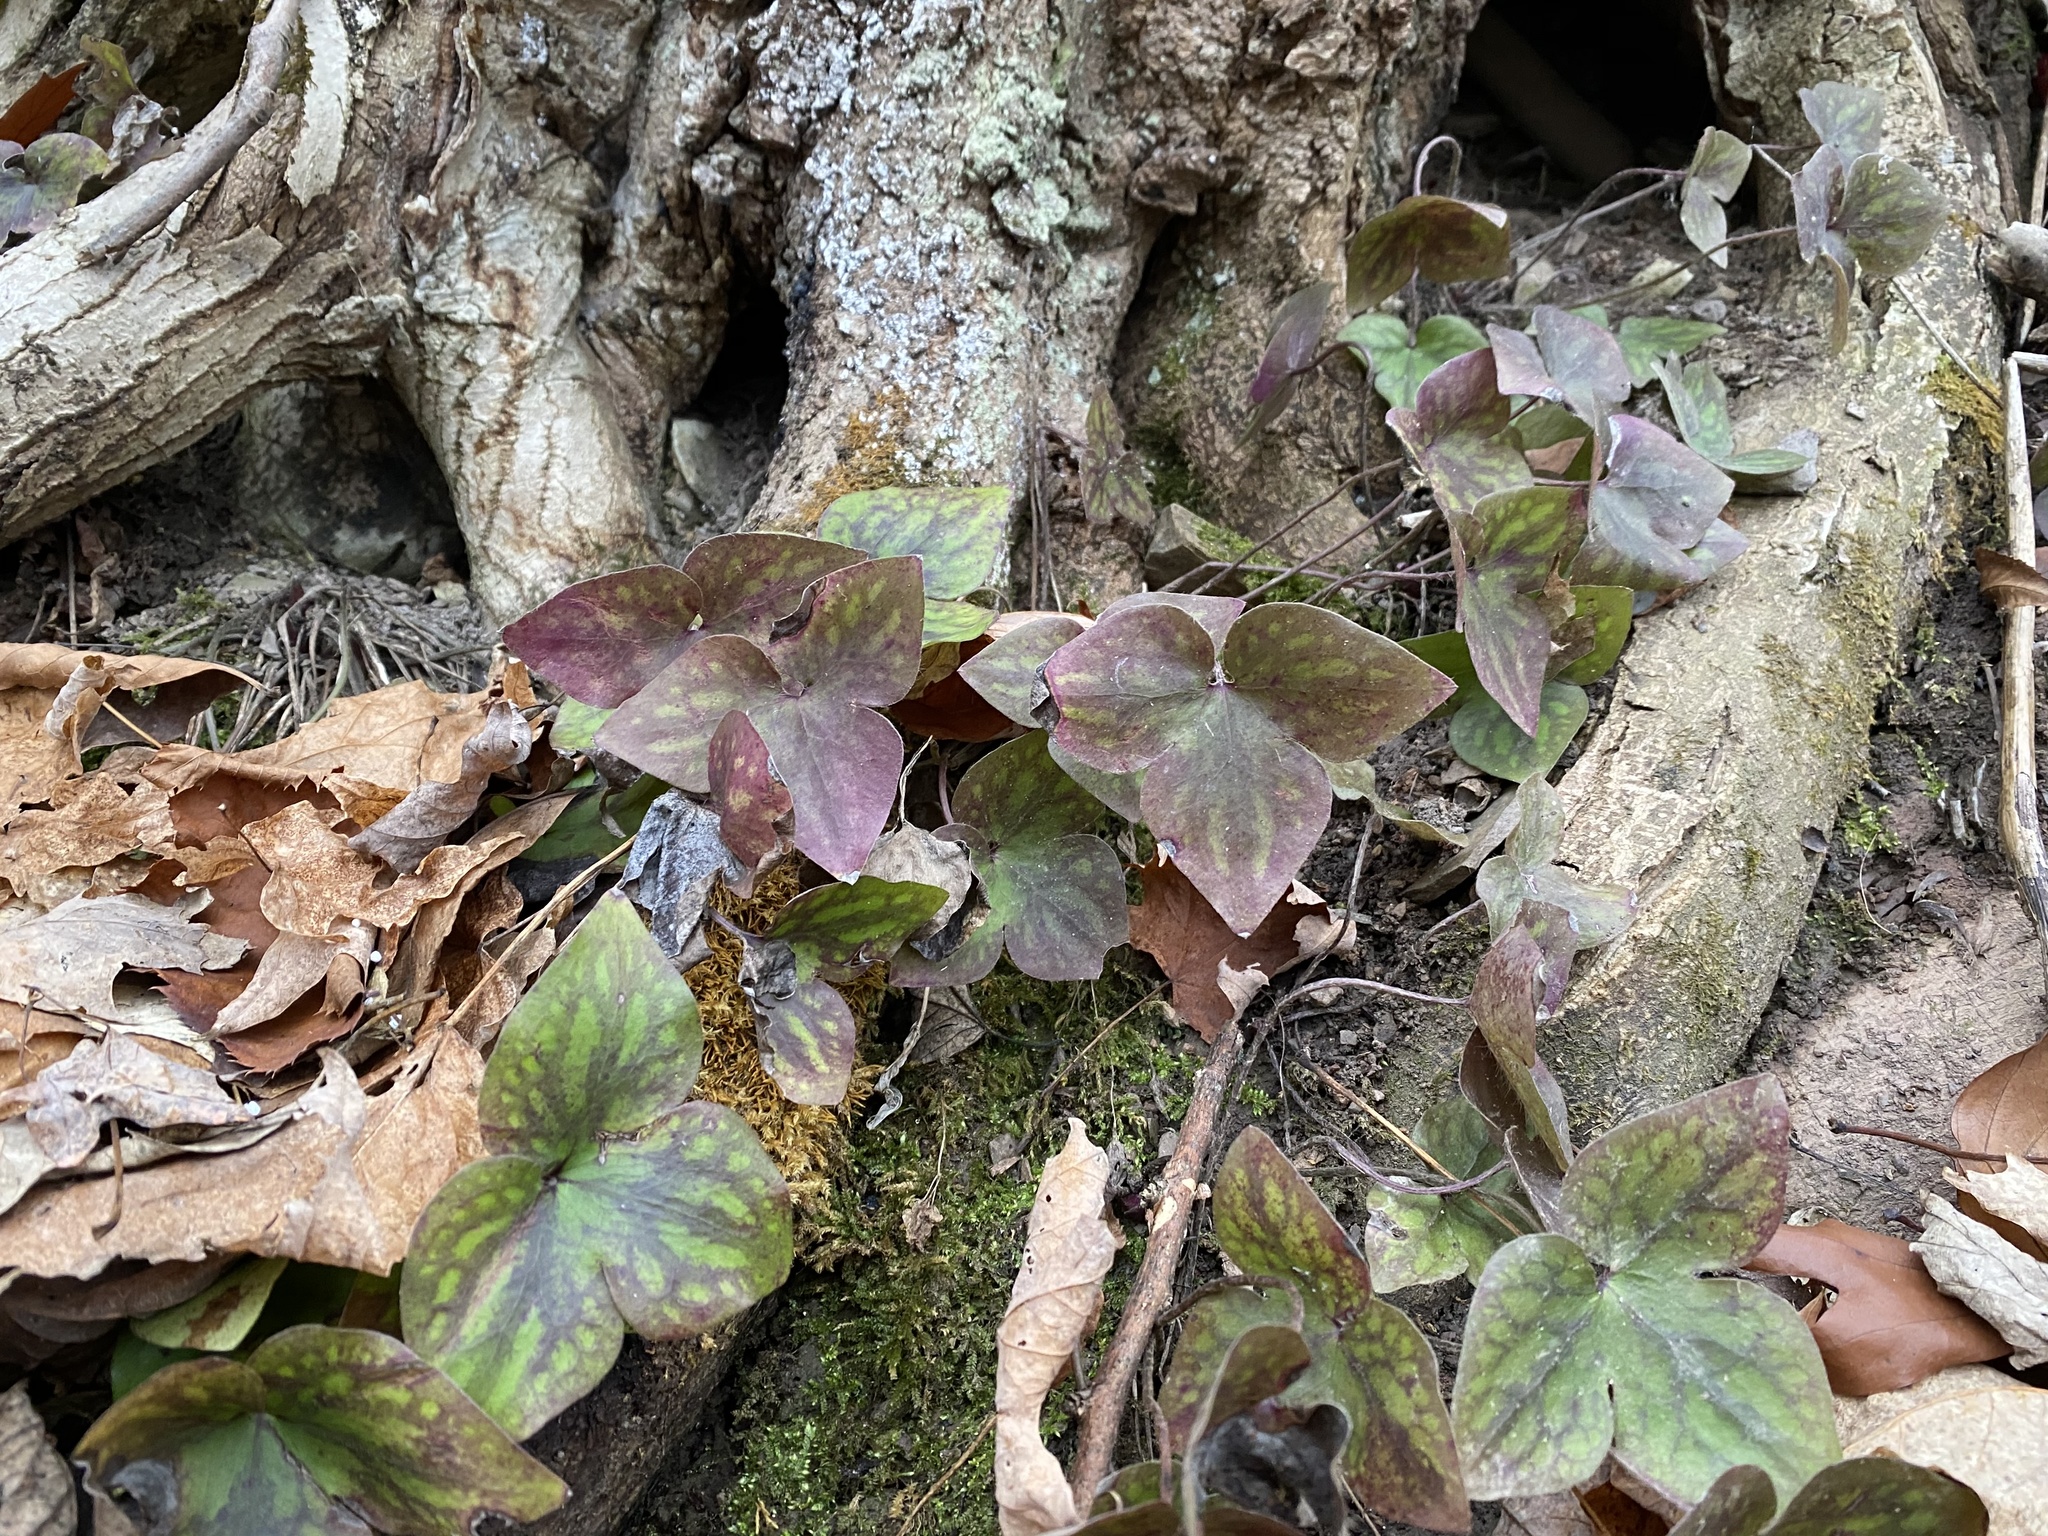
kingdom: Plantae
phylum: Tracheophyta
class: Magnoliopsida
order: Ranunculales
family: Ranunculaceae
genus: Hepatica
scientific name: Hepatica acutiloba
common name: Sharp-lobed hepatica
